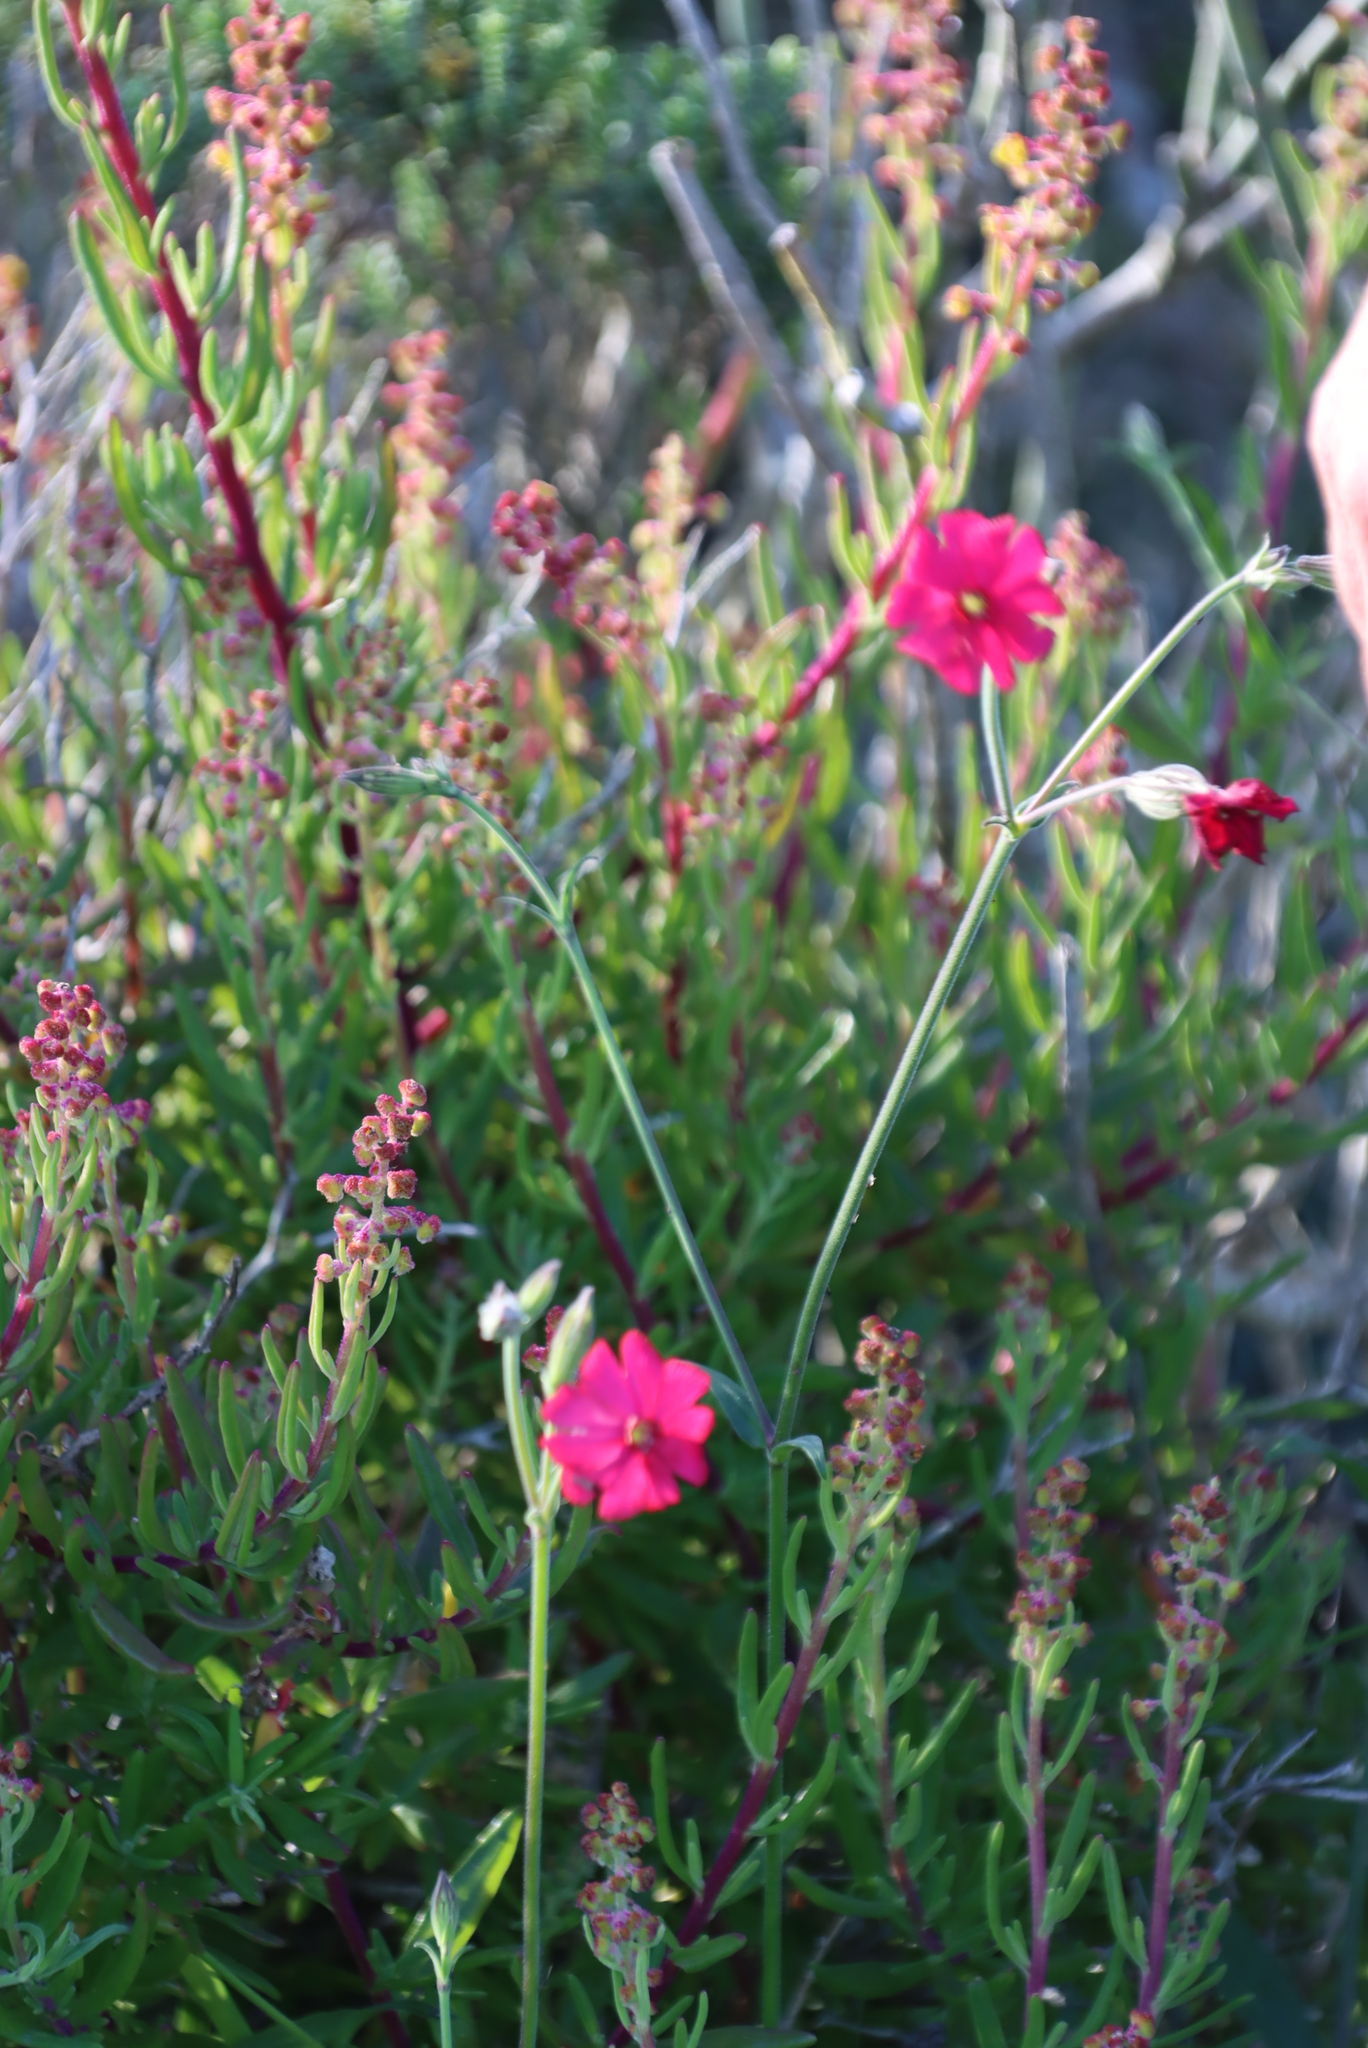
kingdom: Plantae
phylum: Tracheophyta
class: Magnoliopsida
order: Caryophyllales
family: Caryophyllaceae
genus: Silene
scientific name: Silene ornata
